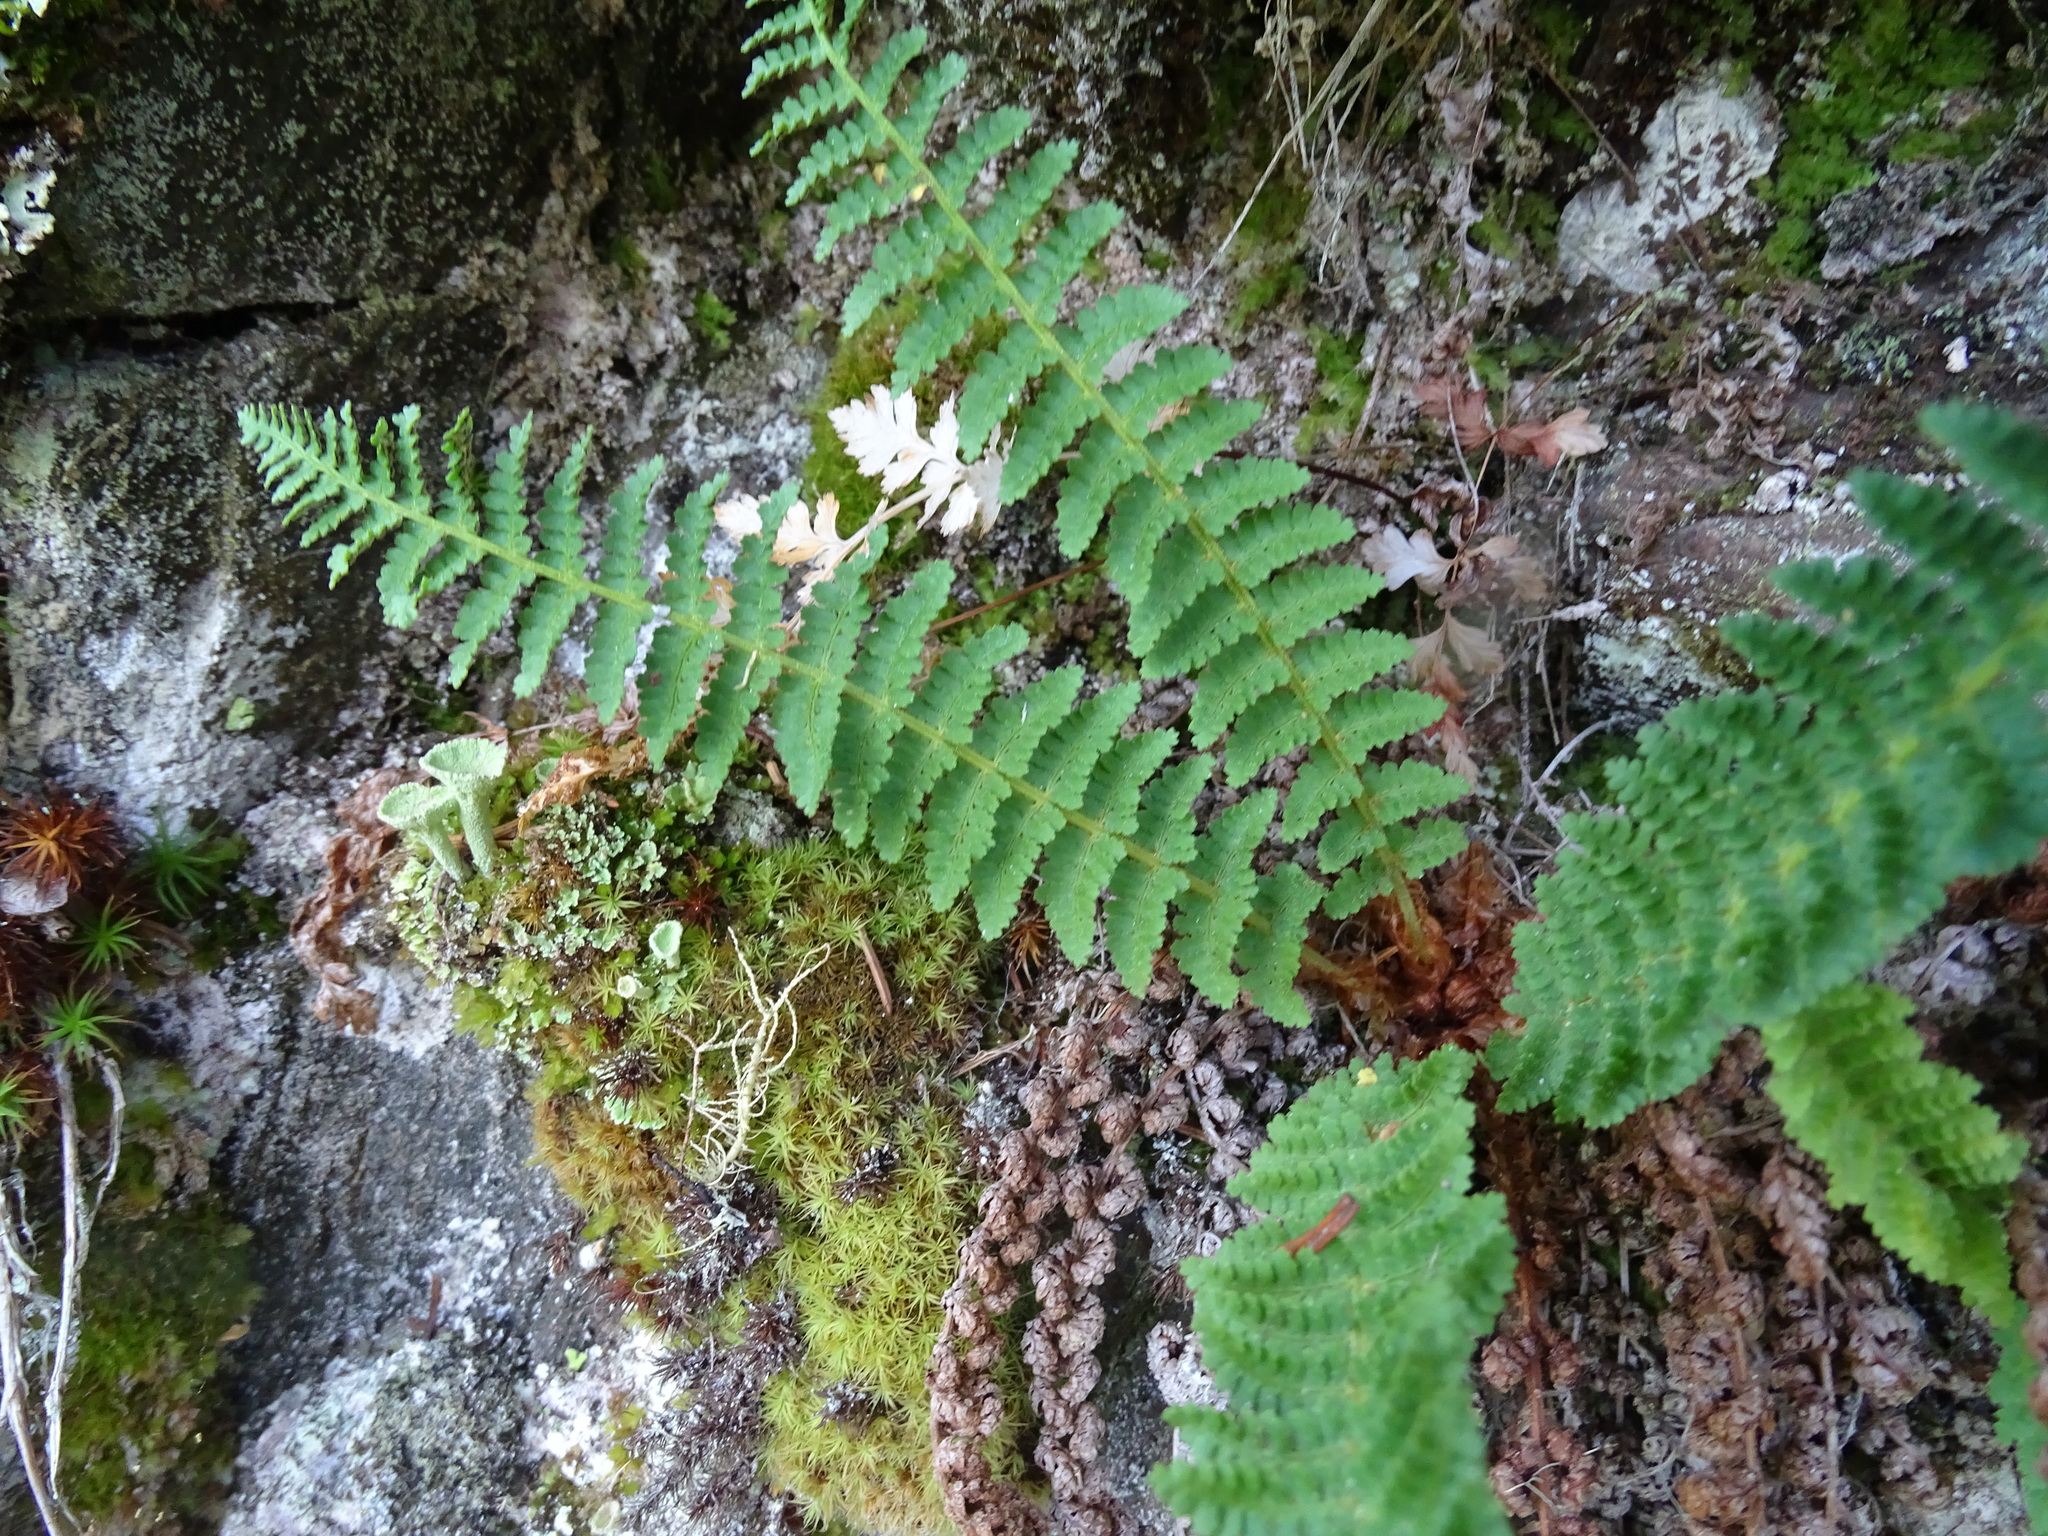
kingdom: Plantae
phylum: Tracheophyta
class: Polypodiopsida
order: Polypodiales
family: Dryopteridaceae
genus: Dryopteris
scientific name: Dryopteris fragrans
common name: Fragrant wood fern
